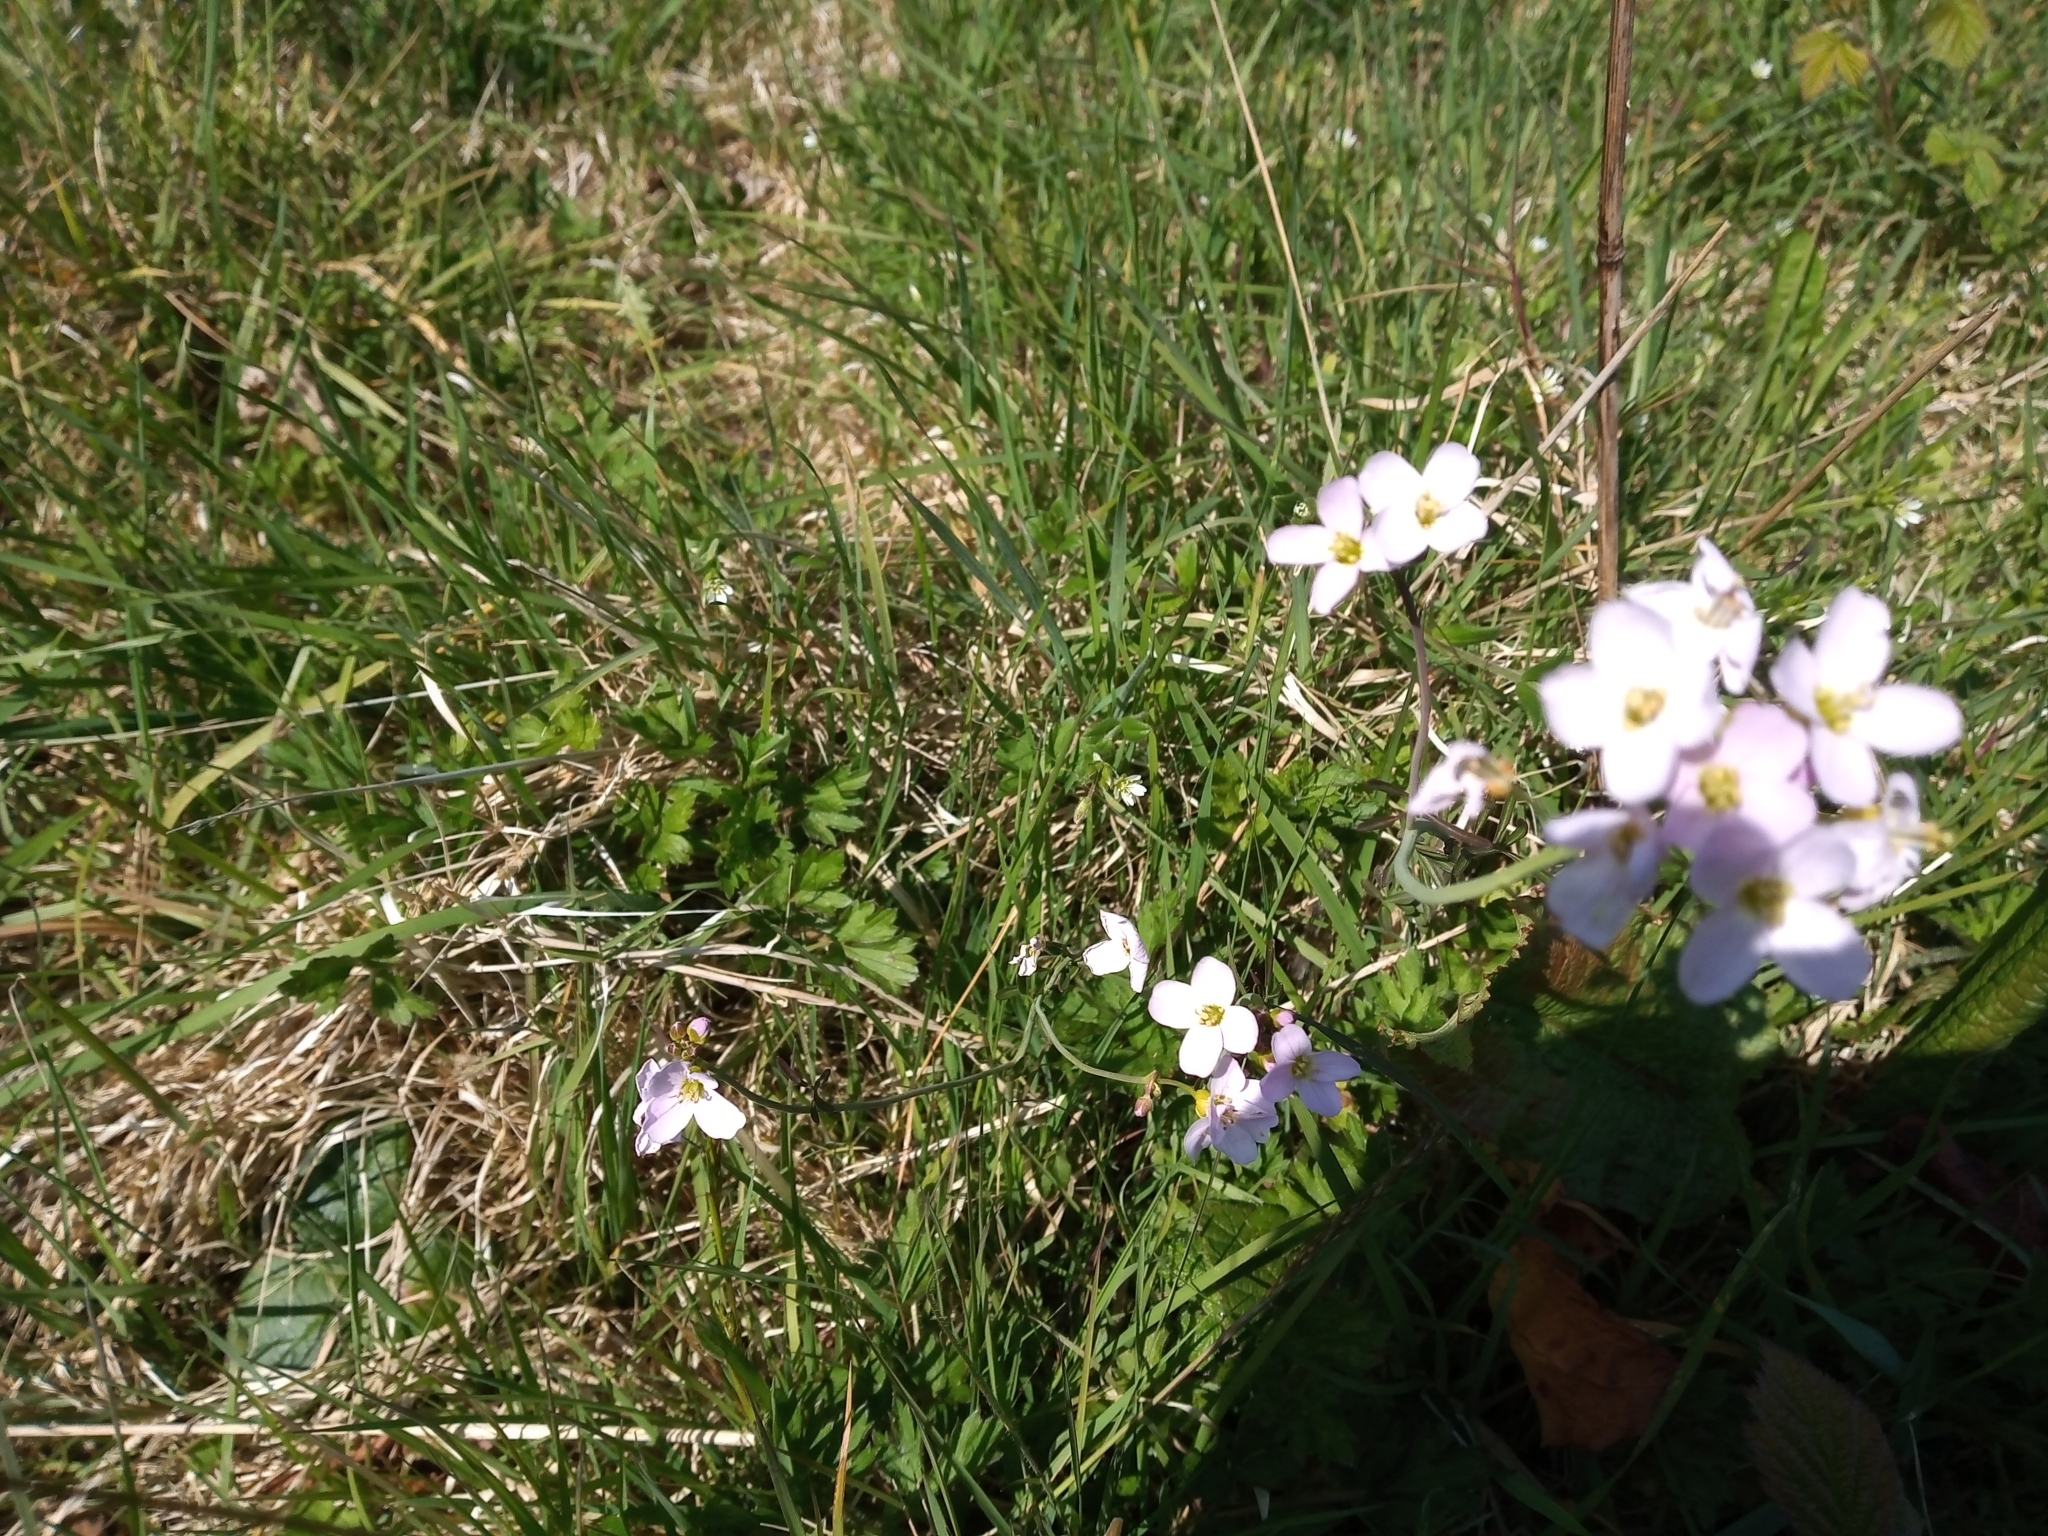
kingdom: Plantae
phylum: Tracheophyta
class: Magnoliopsida
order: Brassicales
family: Brassicaceae
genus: Cardamine
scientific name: Cardamine pratensis
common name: Cuckoo flower
